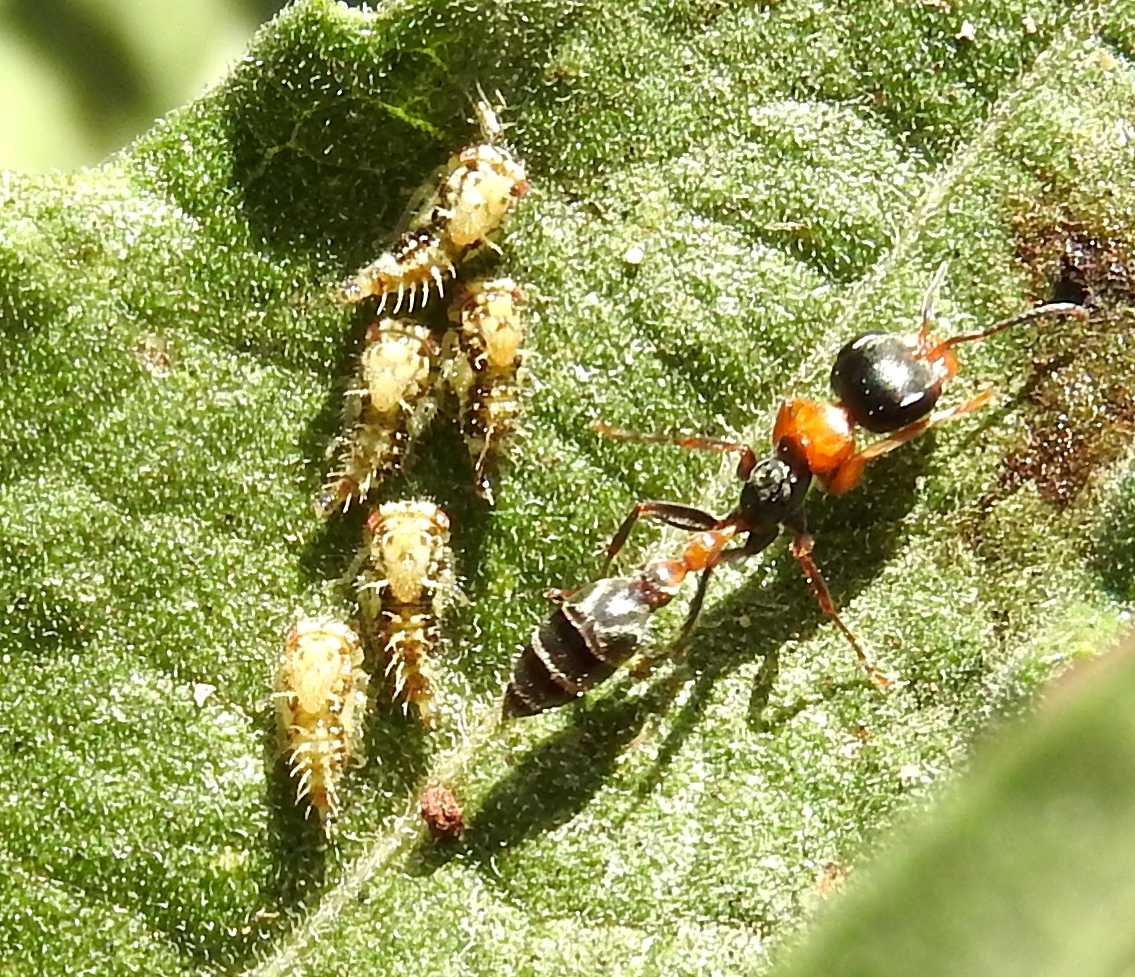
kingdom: Animalia
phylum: Arthropoda
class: Insecta
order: Hymenoptera
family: Formicidae
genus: Pseudomyrmex
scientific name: Pseudomyrmex gracilis
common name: Graceful twig ant
